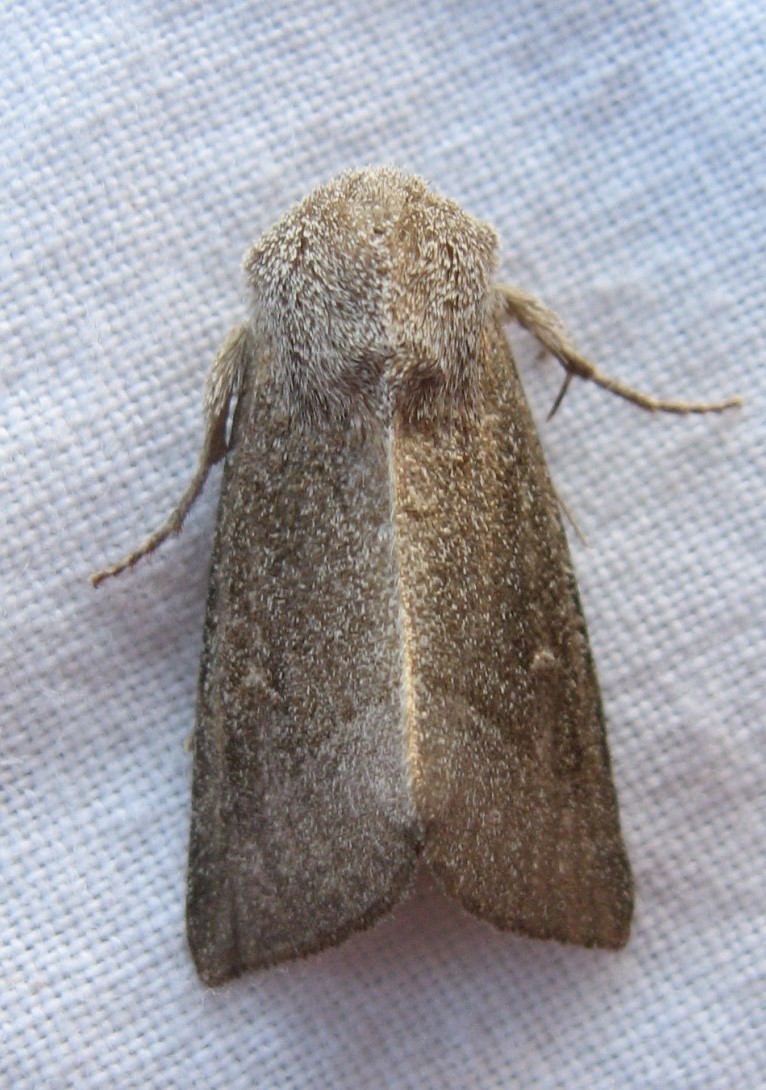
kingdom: Animalia
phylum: Arthropoda
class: Insecta
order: Lepidoptera
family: Noctuidae
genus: Papaipema
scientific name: Papaipema beeriana
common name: Blazing star stem borer
